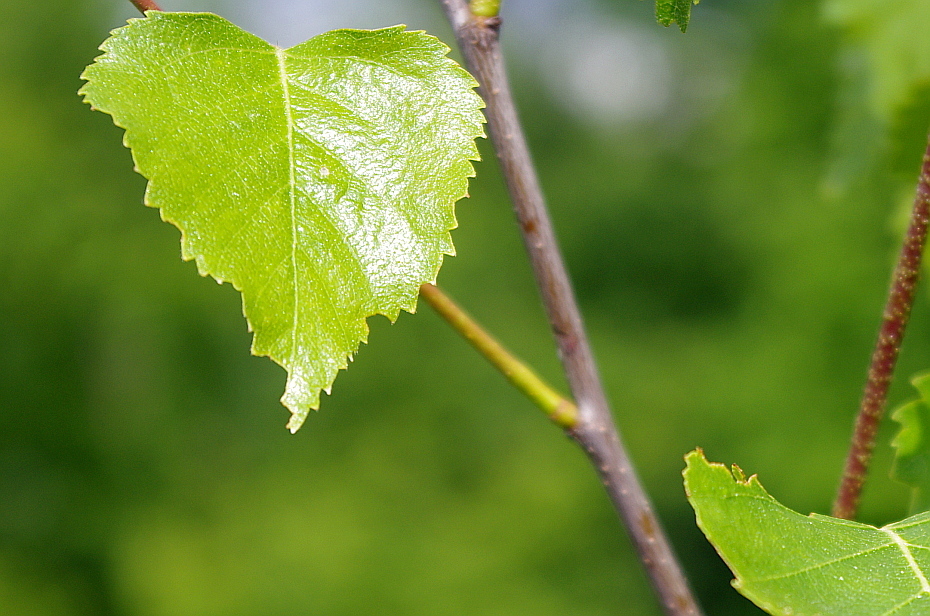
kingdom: Plantae
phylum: Tracheophyta
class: Magnoliopsida
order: Fagales
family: Betulaceae
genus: Betula
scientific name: Betula pendula
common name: Silver birch
